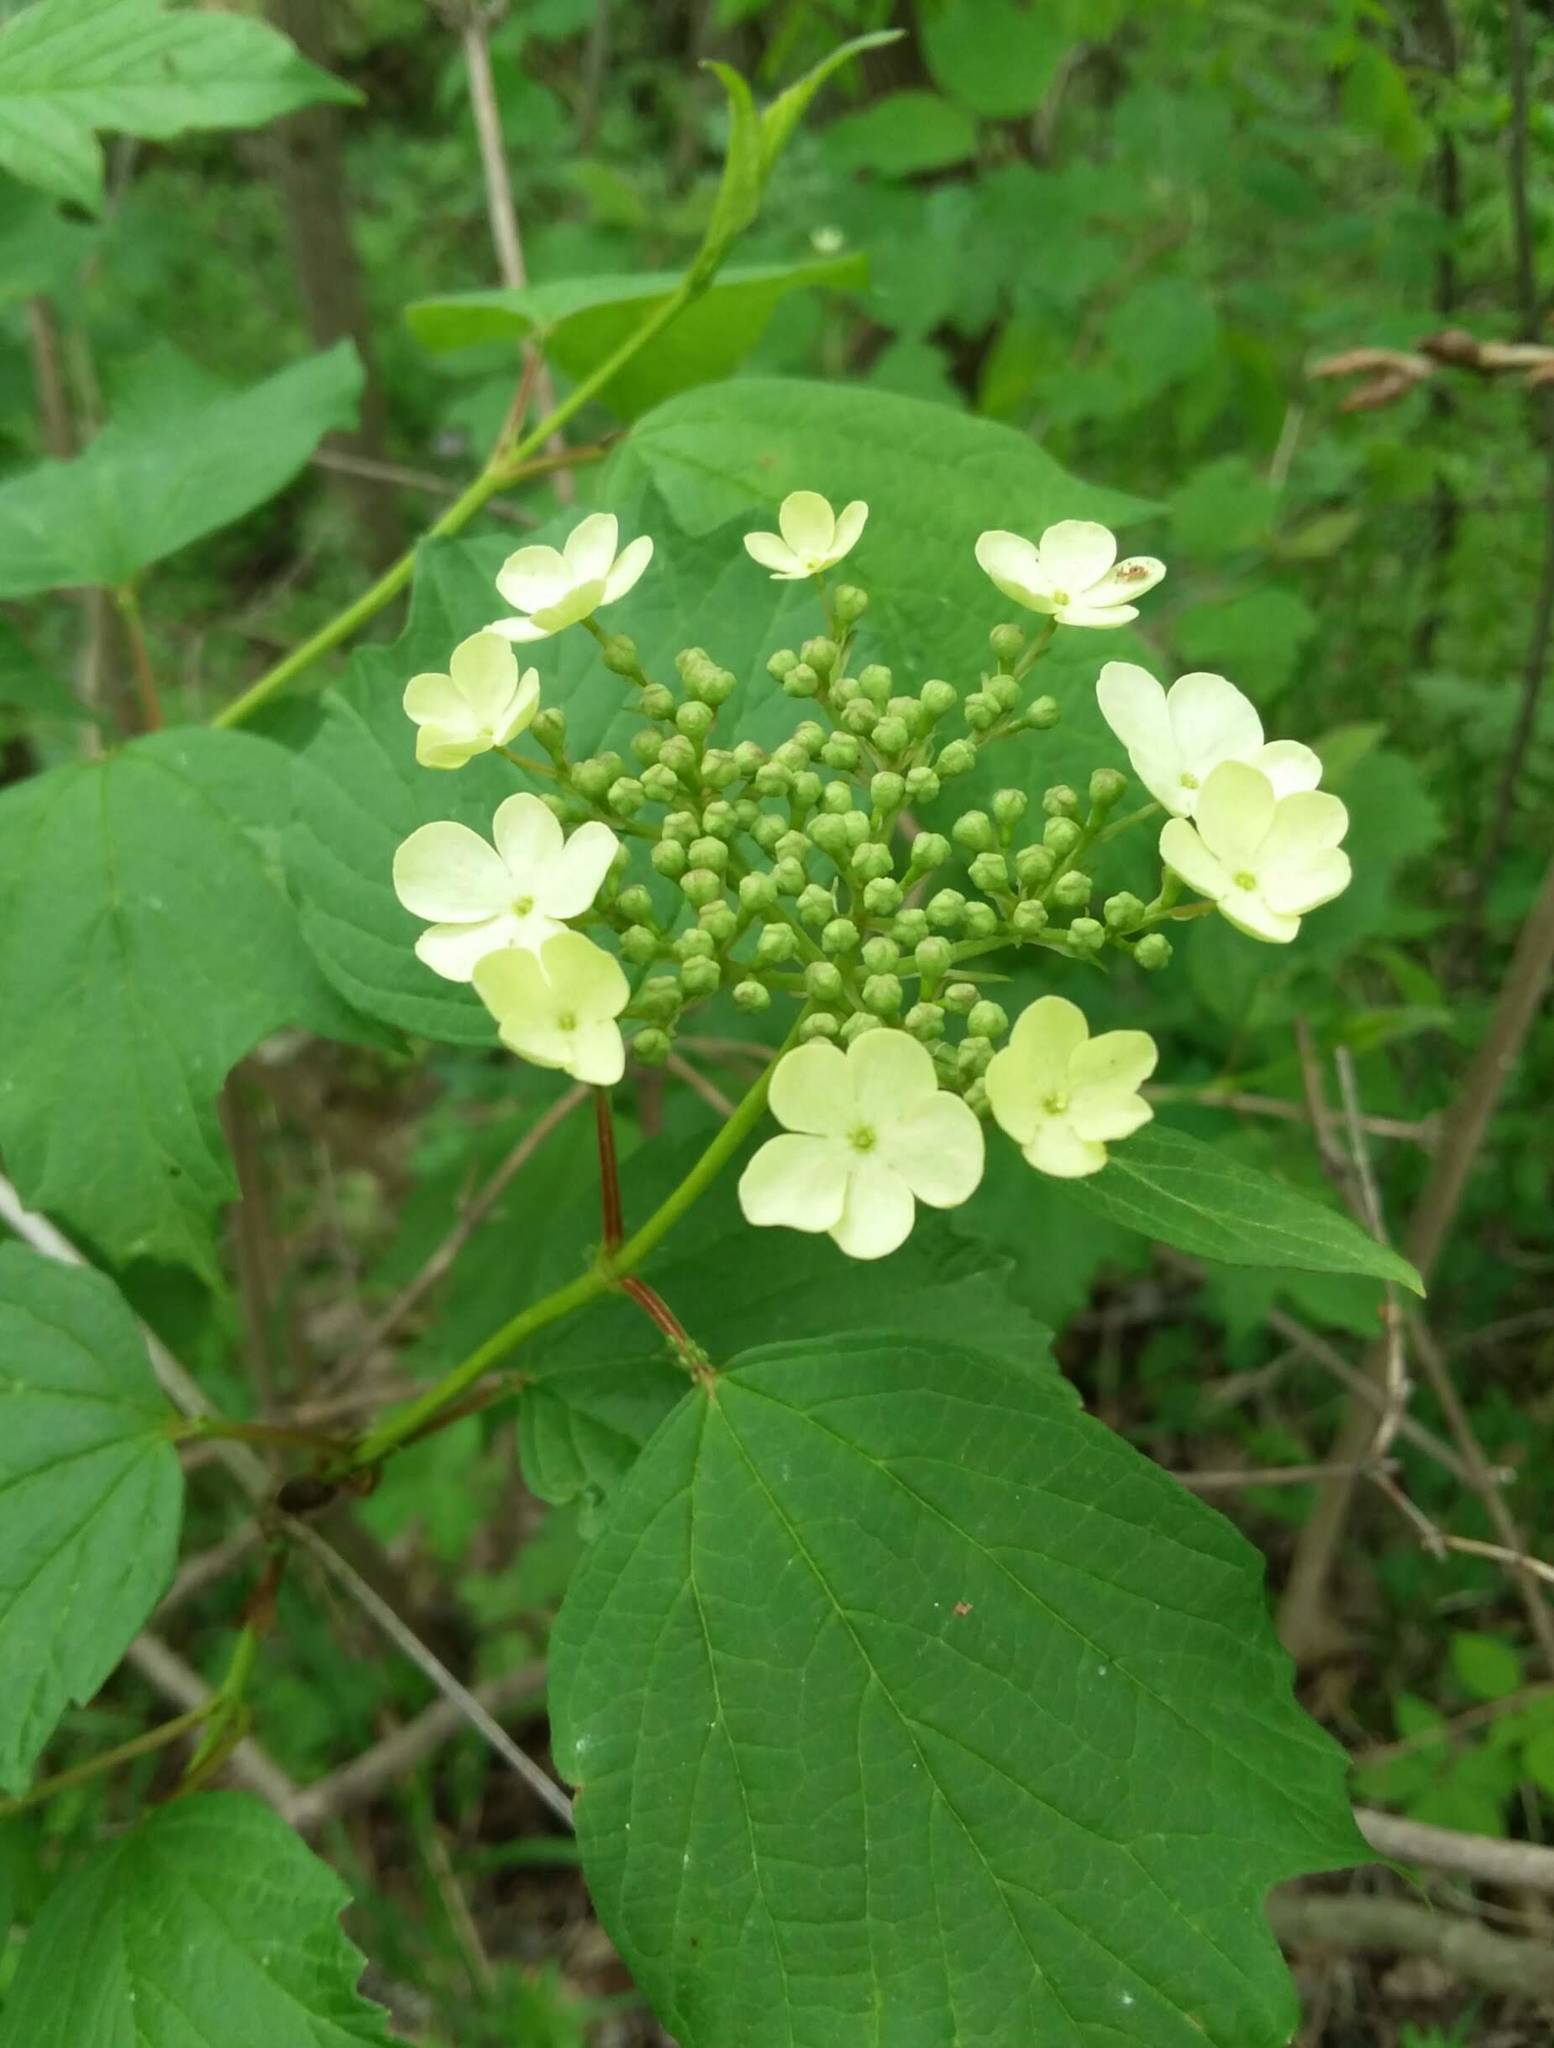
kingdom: Plantae
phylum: Tracheophyta
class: Magnoliopsida
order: Dipsacales
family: Viburnaceae
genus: Viburnum
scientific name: Viburnum opulus
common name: Guelder-rose
